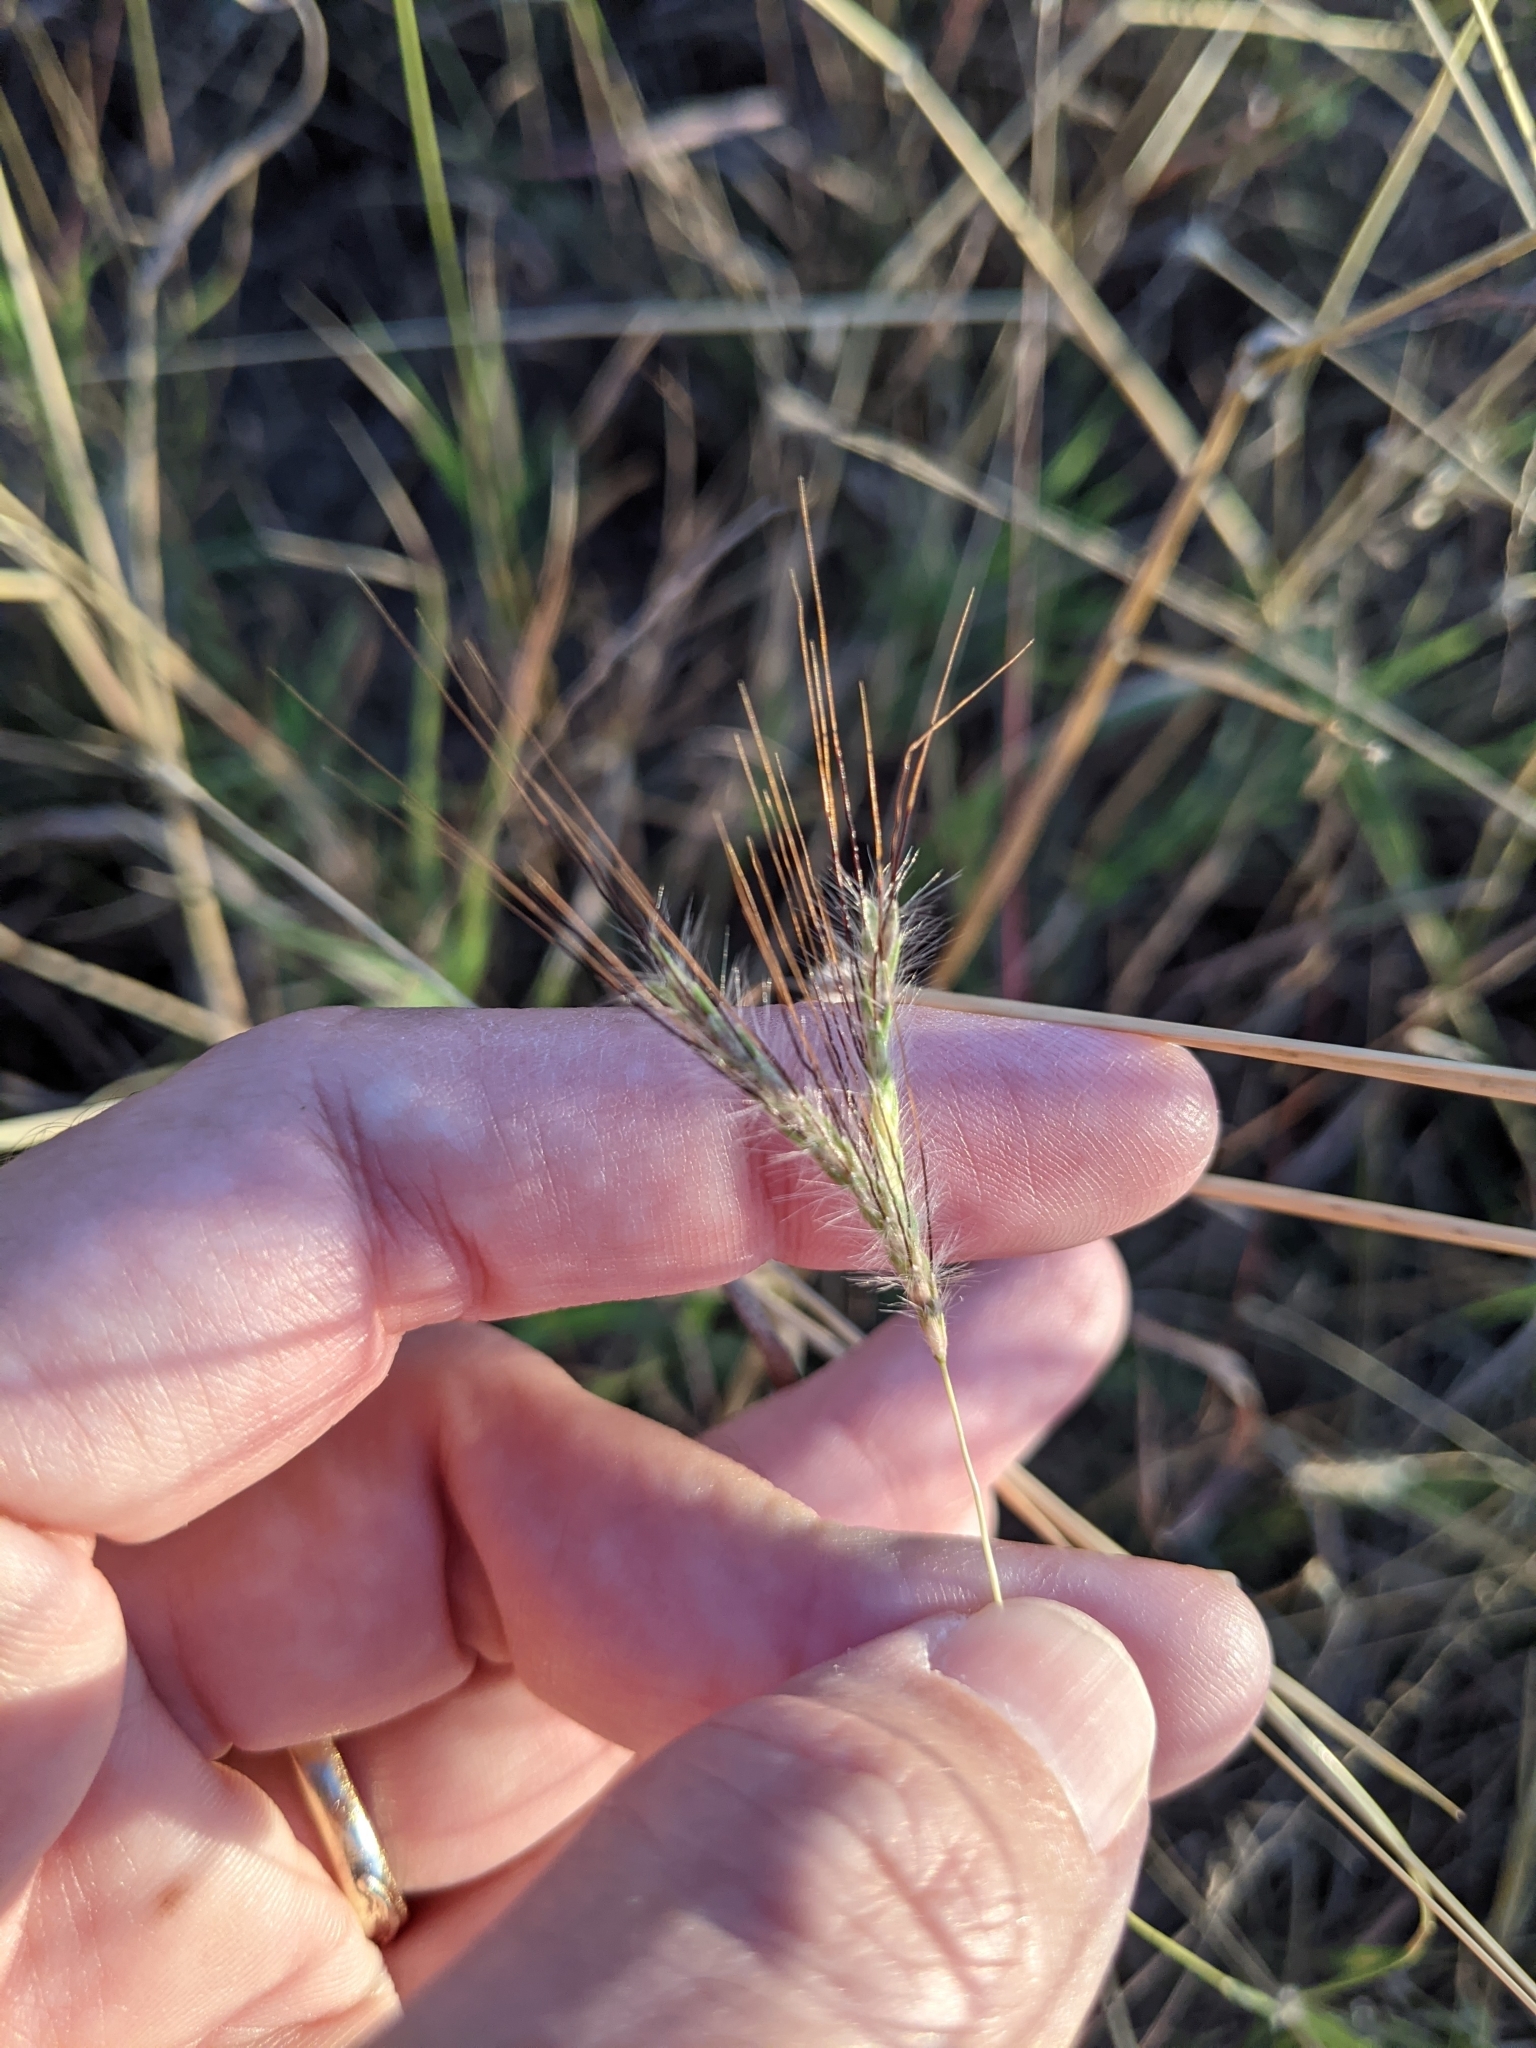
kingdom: Plantae
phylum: Tracheophyta
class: Liliopsida
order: Poales
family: Poaceae
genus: Dichanthium
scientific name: Dichanthium sericeum
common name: Silky bluestem
